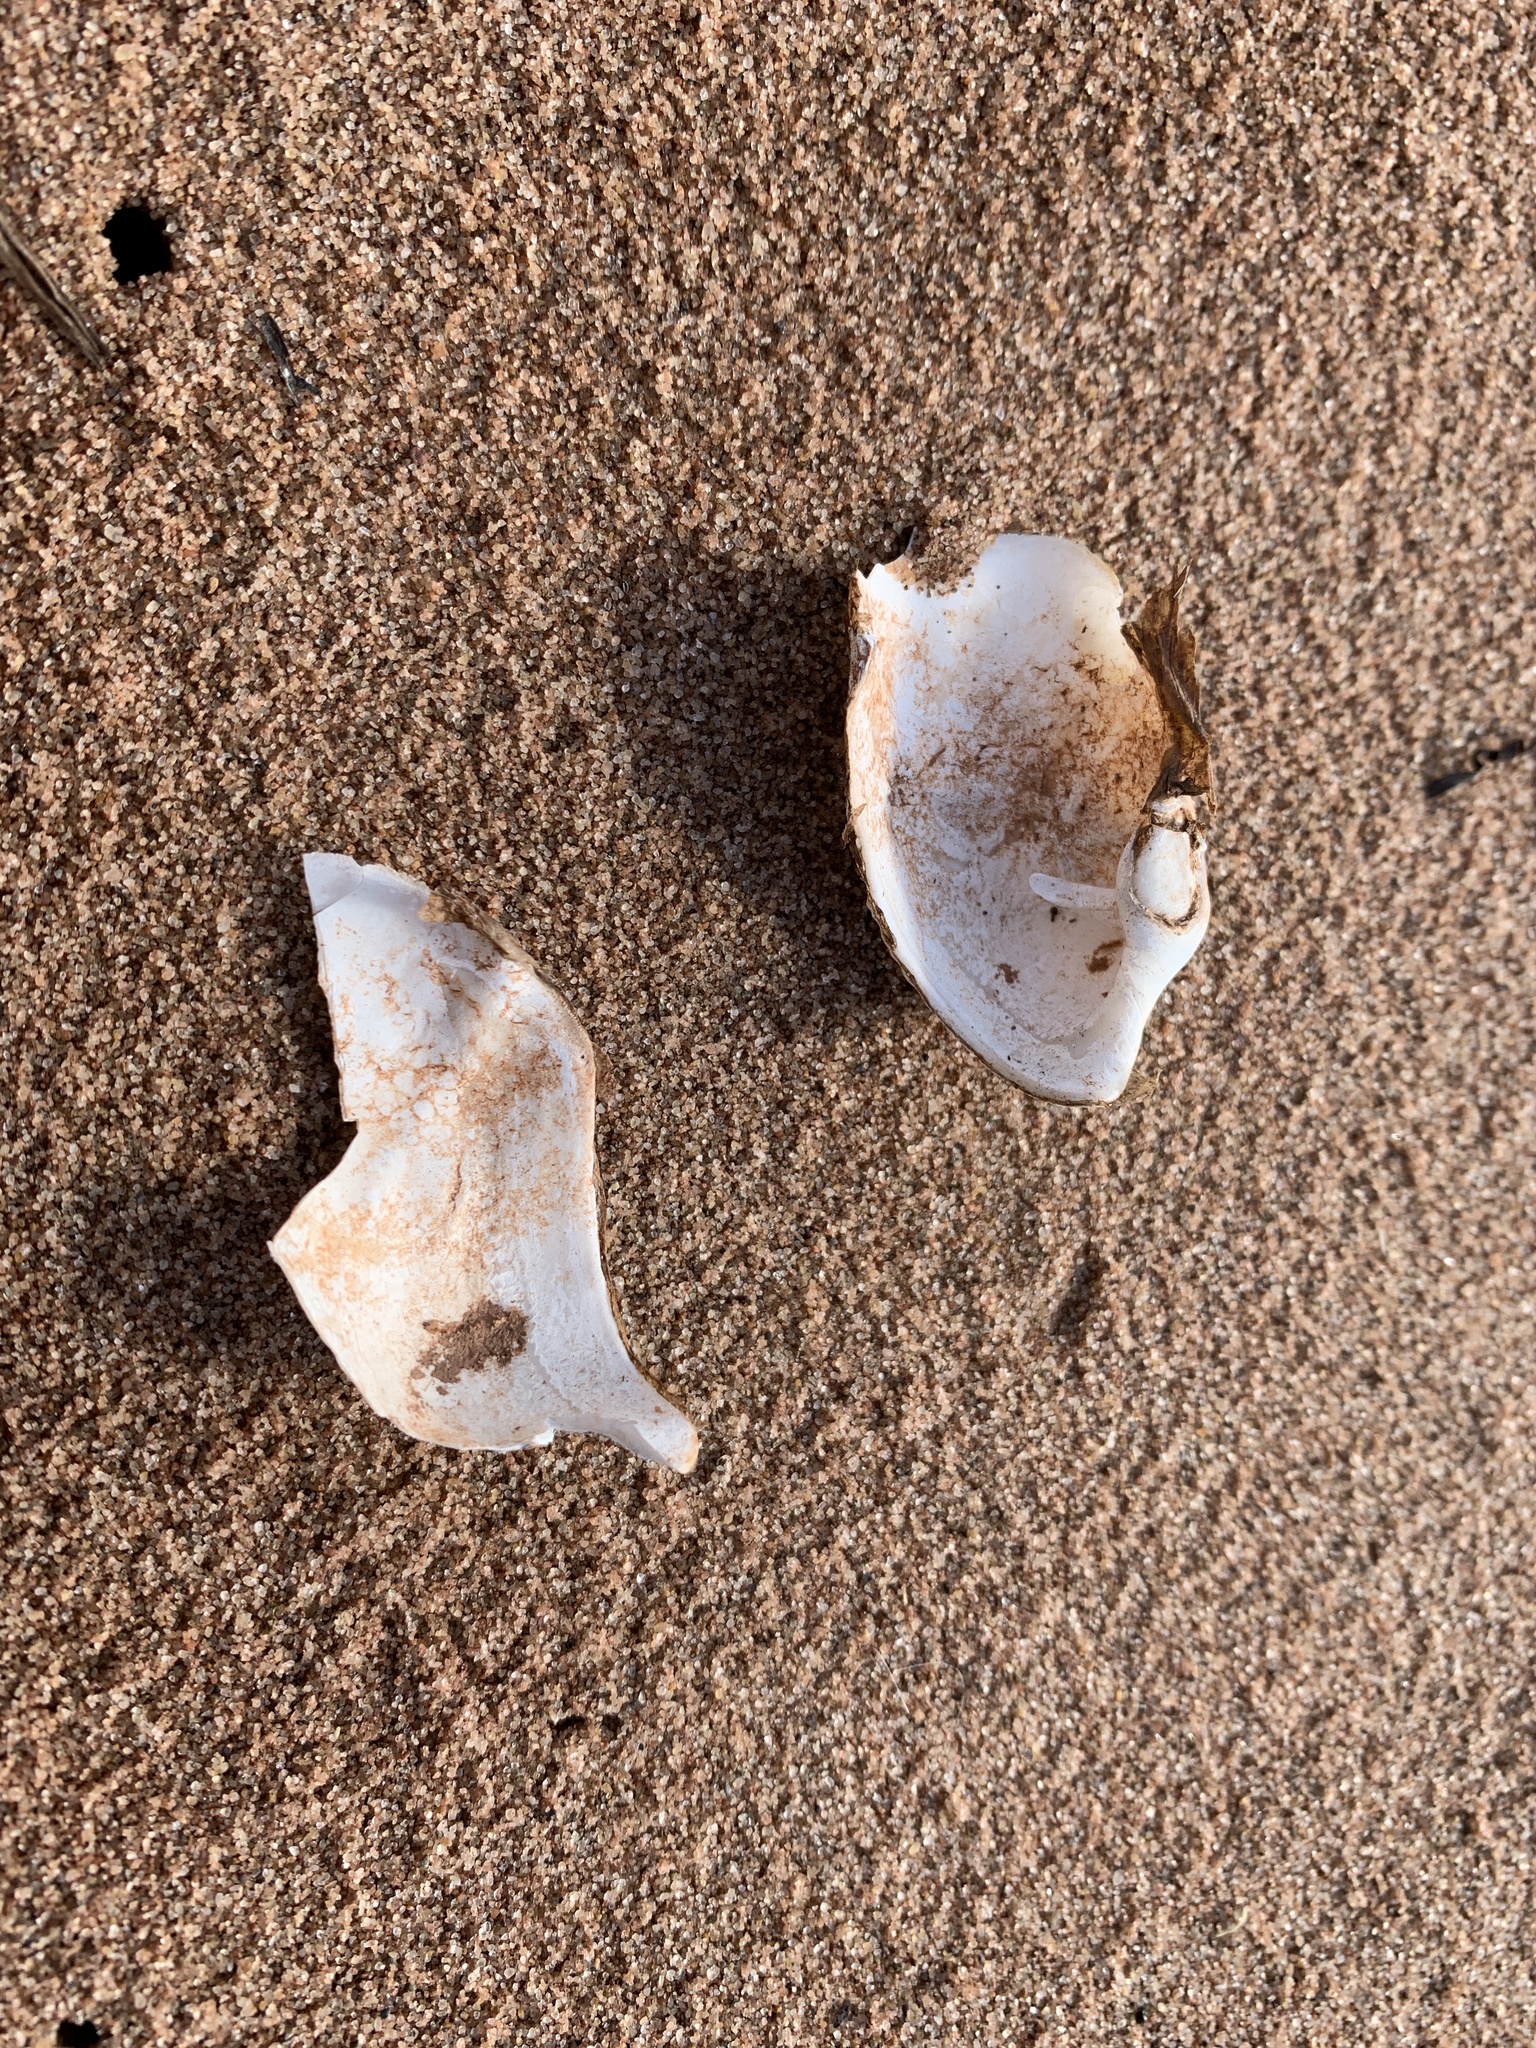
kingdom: Animalia
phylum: Mollusca
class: Bivalvia
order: Myida
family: Pholadidae
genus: Zirfaea
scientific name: Zirfaea crispata
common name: Oval piddock
